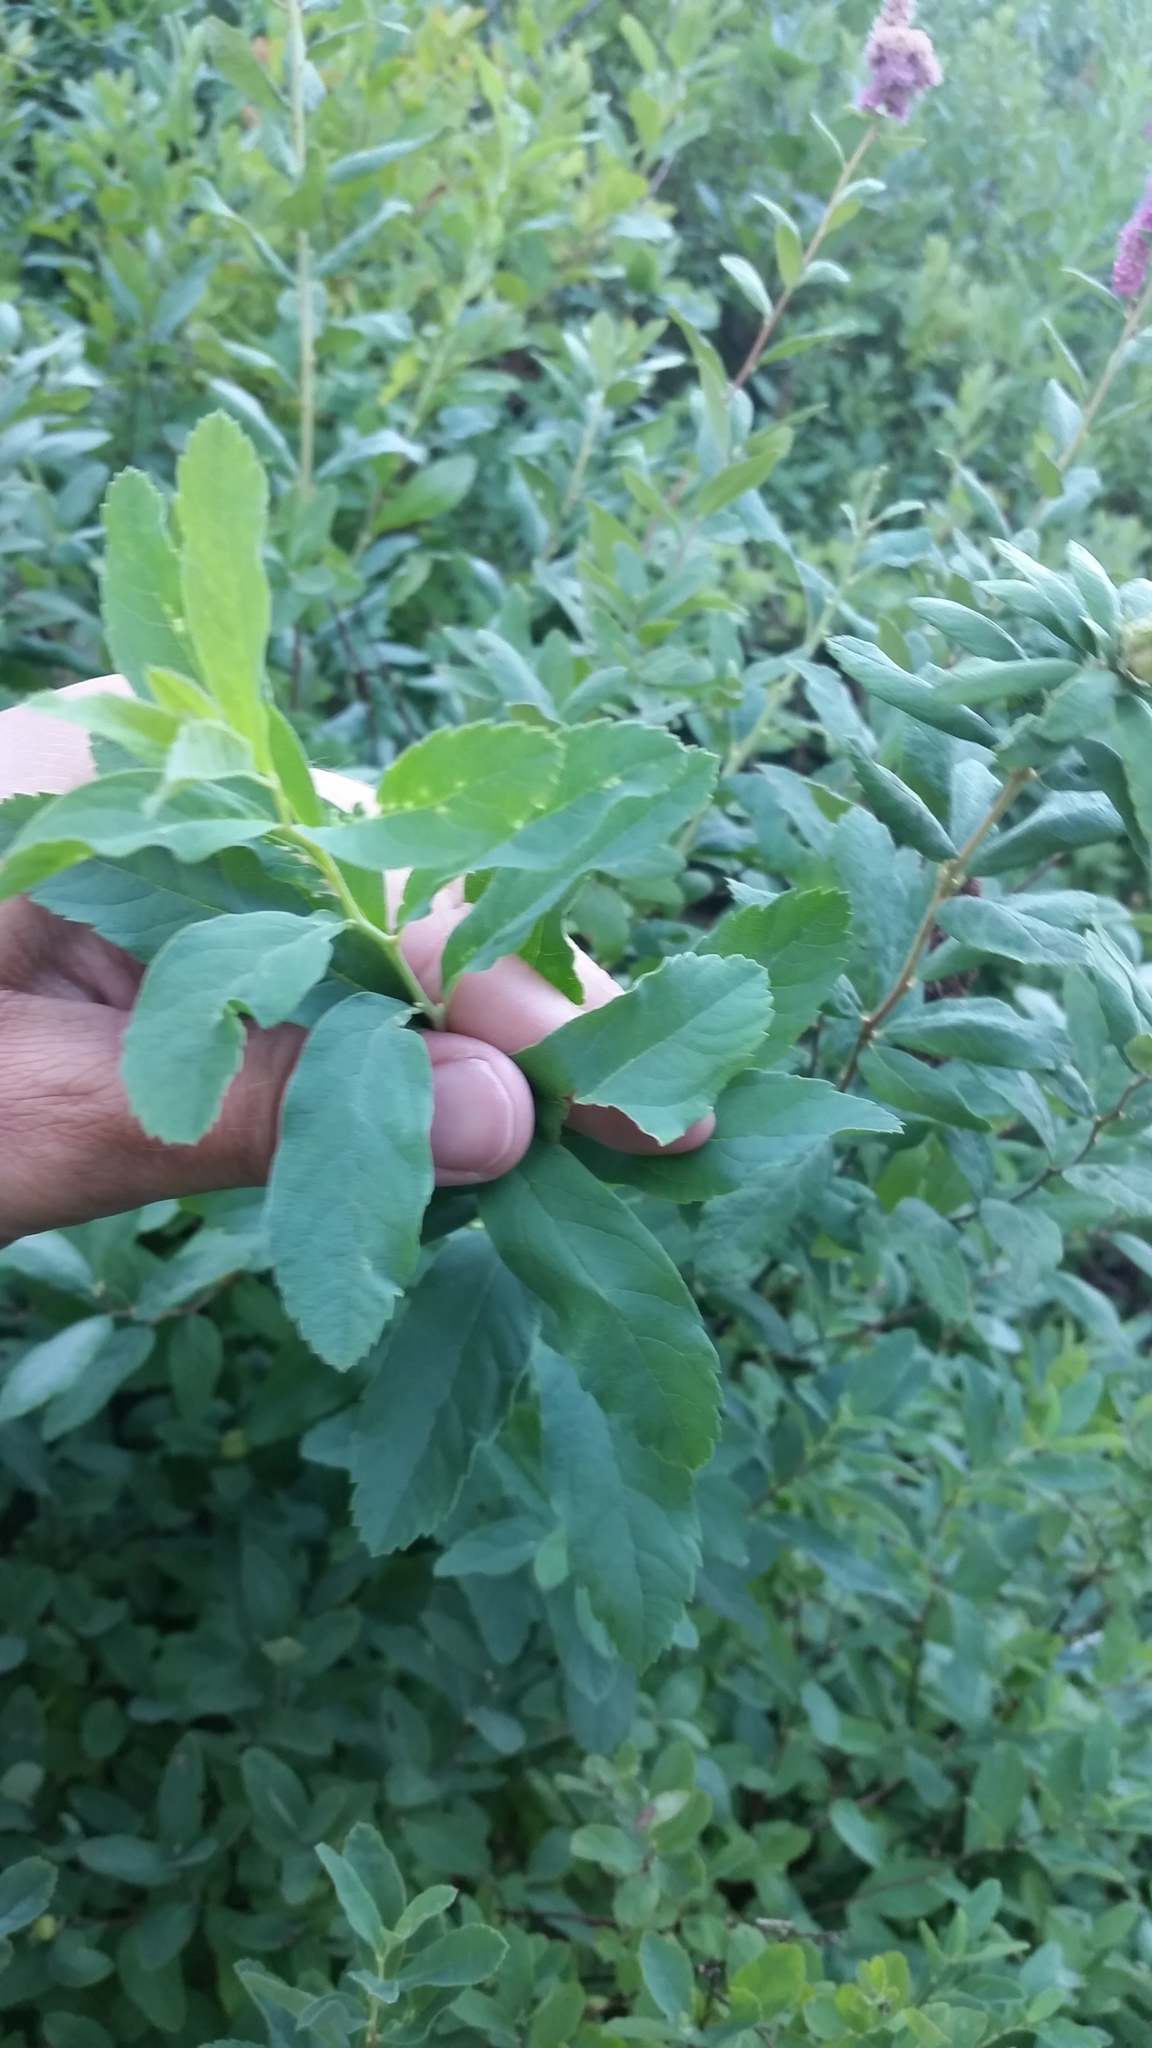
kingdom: Plantae
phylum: Tracheophyta
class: Magnoliopsida
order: Rosales
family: Rosaceae
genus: Spiraea
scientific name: Spiraea douglasii
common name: Steeplebush
